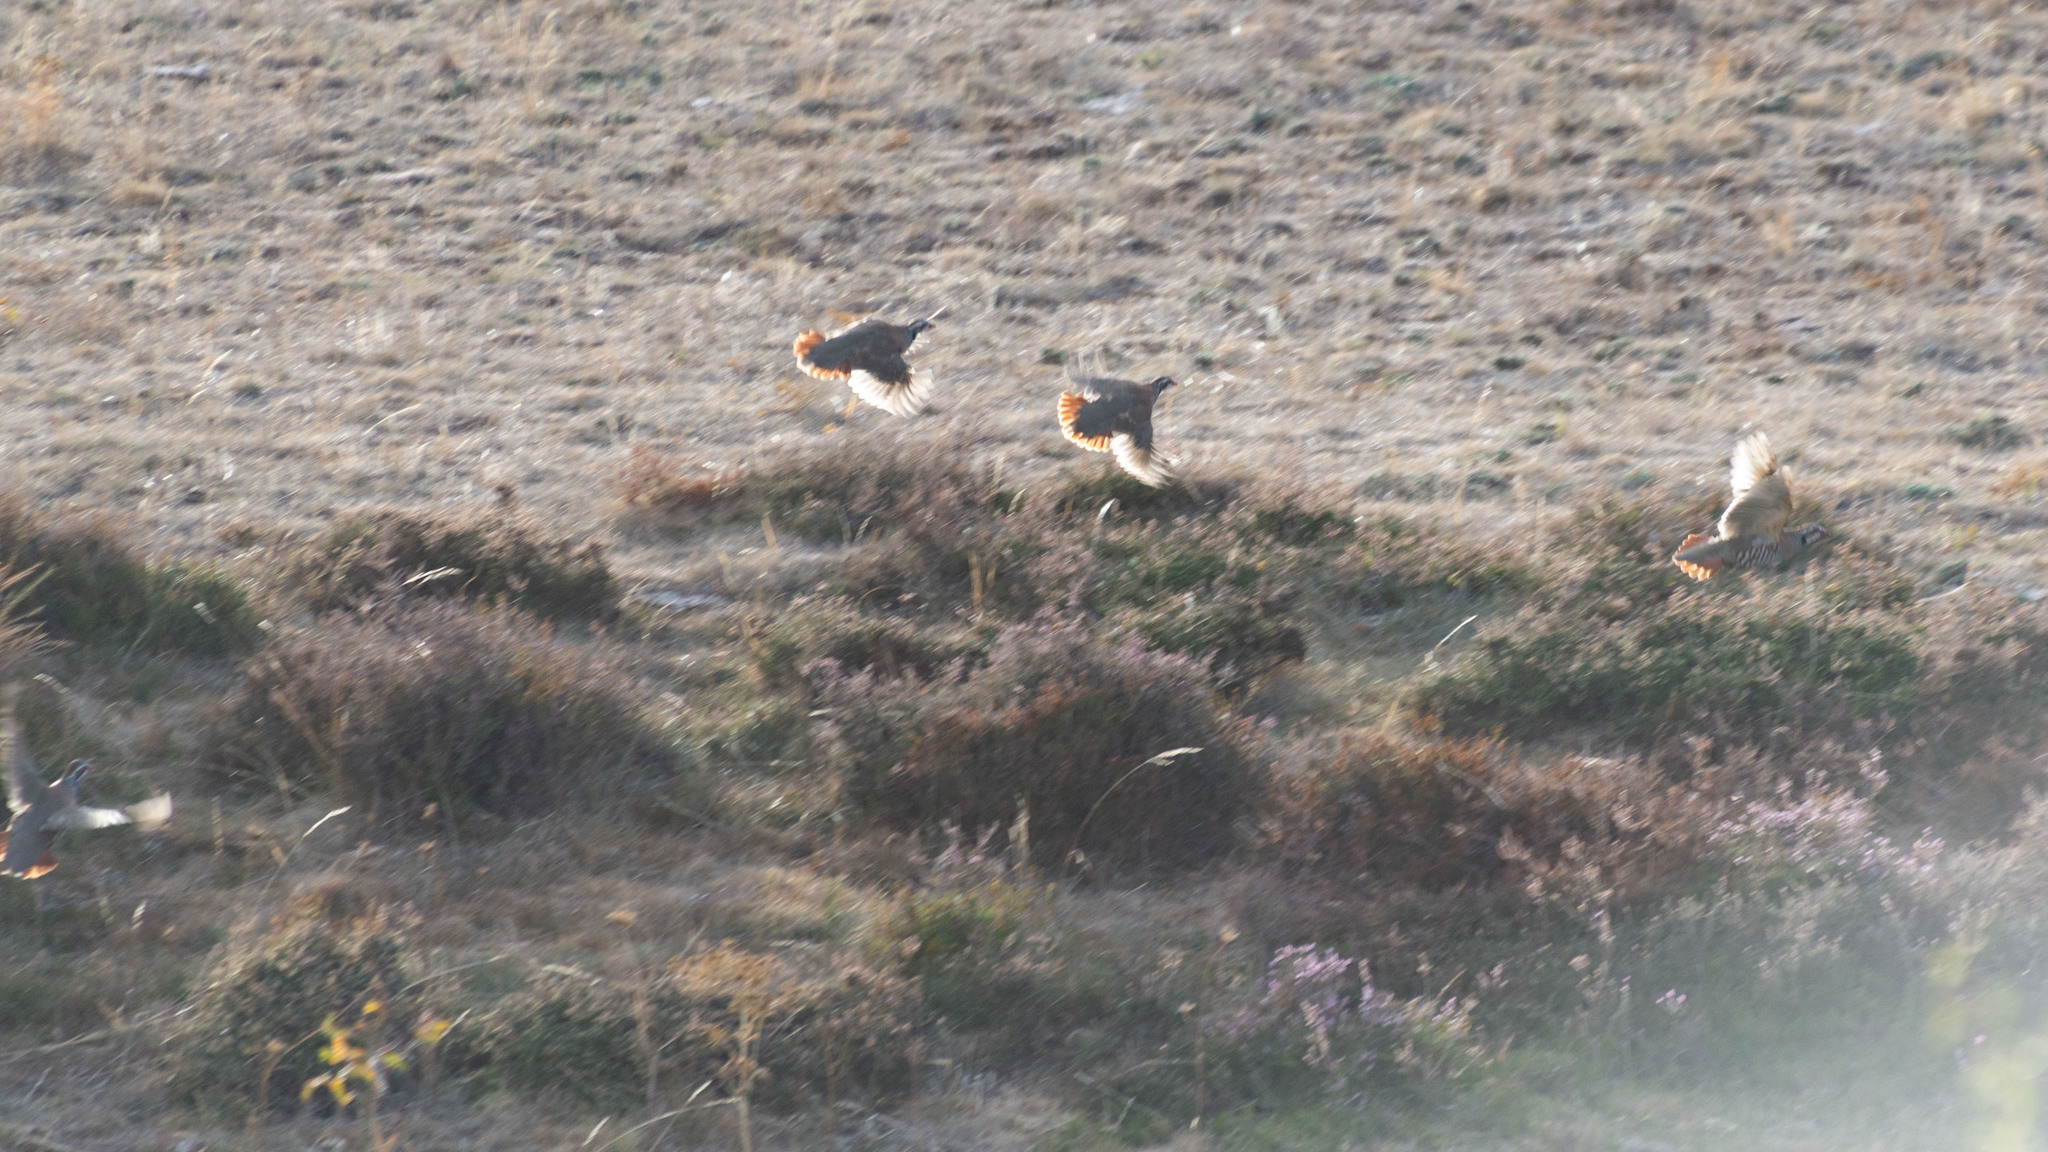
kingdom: Animalia
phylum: Chordata
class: Aves
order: Galliformes
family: Phasianidae
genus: Alectoris
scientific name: Alectoris rufa
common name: Red-legged partridge
